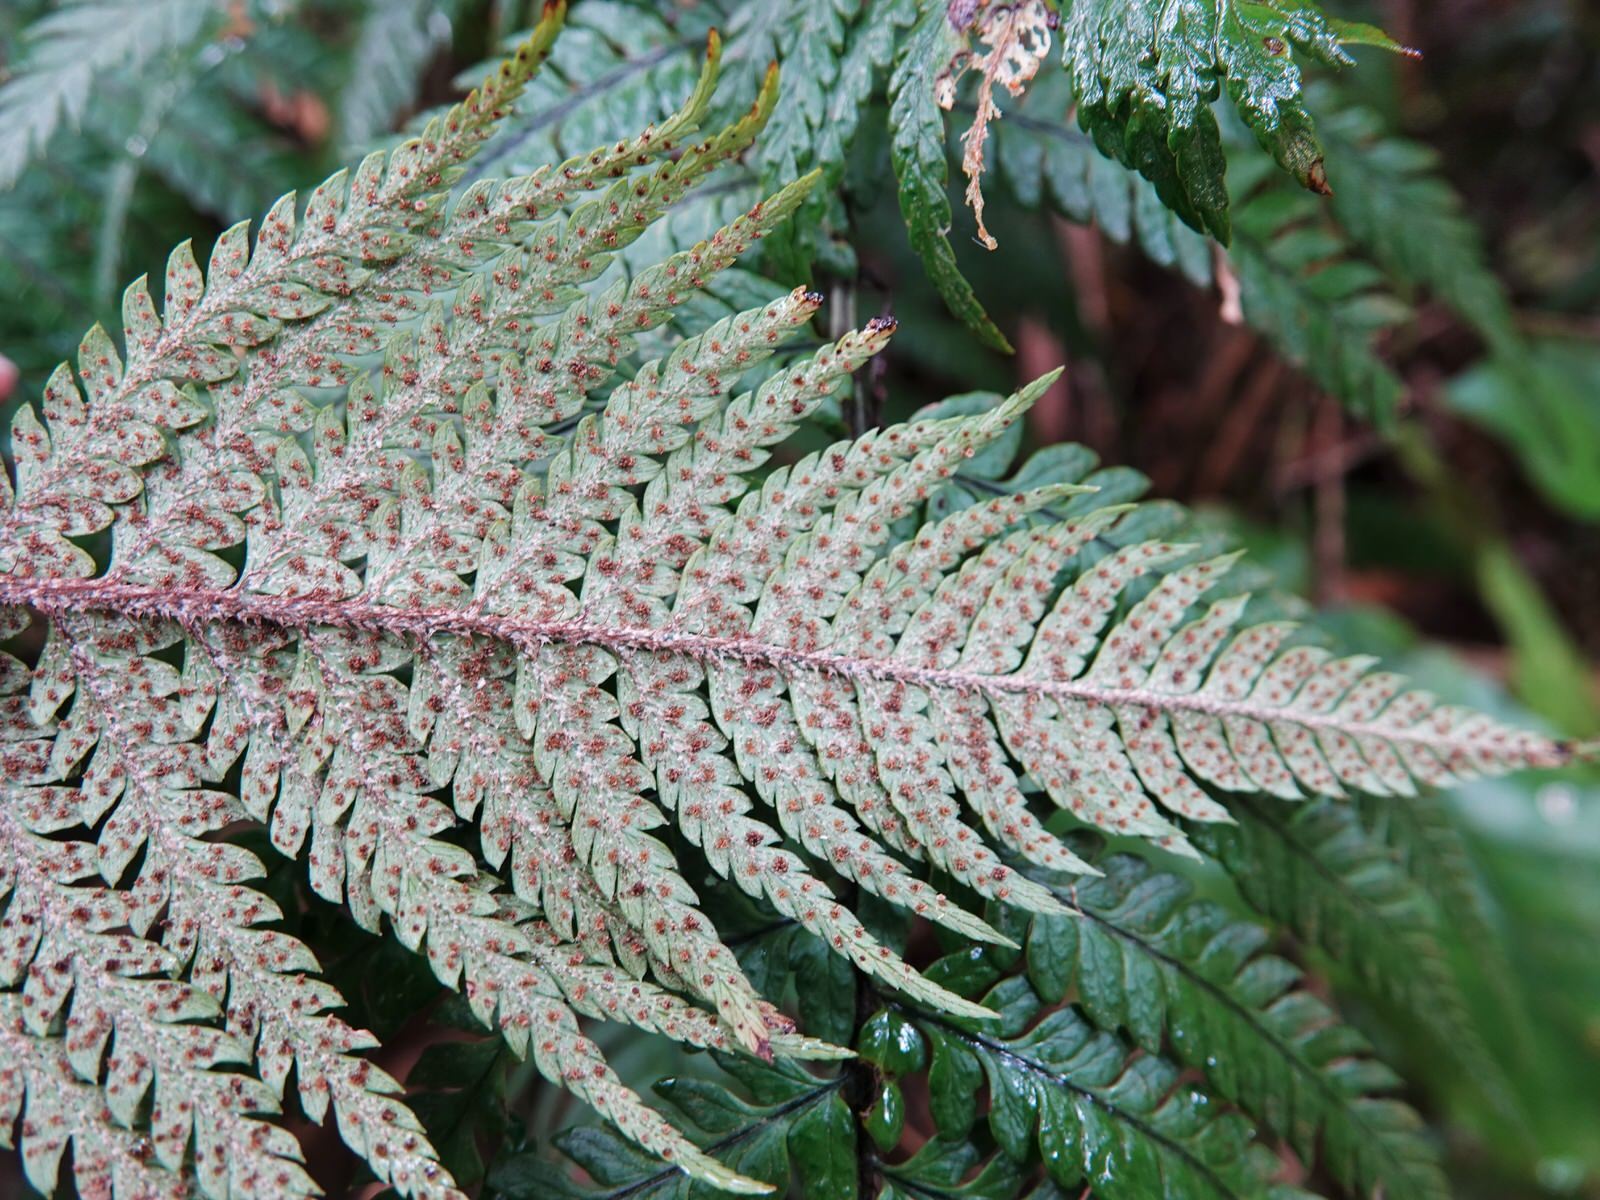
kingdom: Plantae
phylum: Tracheophyta
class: Polypodiopsida
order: Polypodiales
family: Dryopteridaceae
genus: Polystichum
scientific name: Polystichum wawranum
